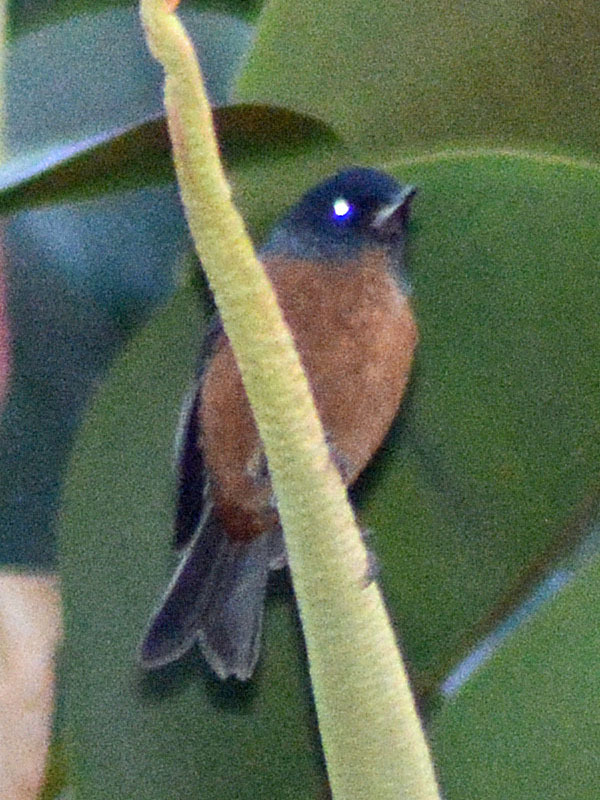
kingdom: Animalia
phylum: Chordata
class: Aves
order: Passeriformes
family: Thraupidae
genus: Diglossa
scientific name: Diglossa baritula
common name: Cinnamon-bellied flowerpiercer
